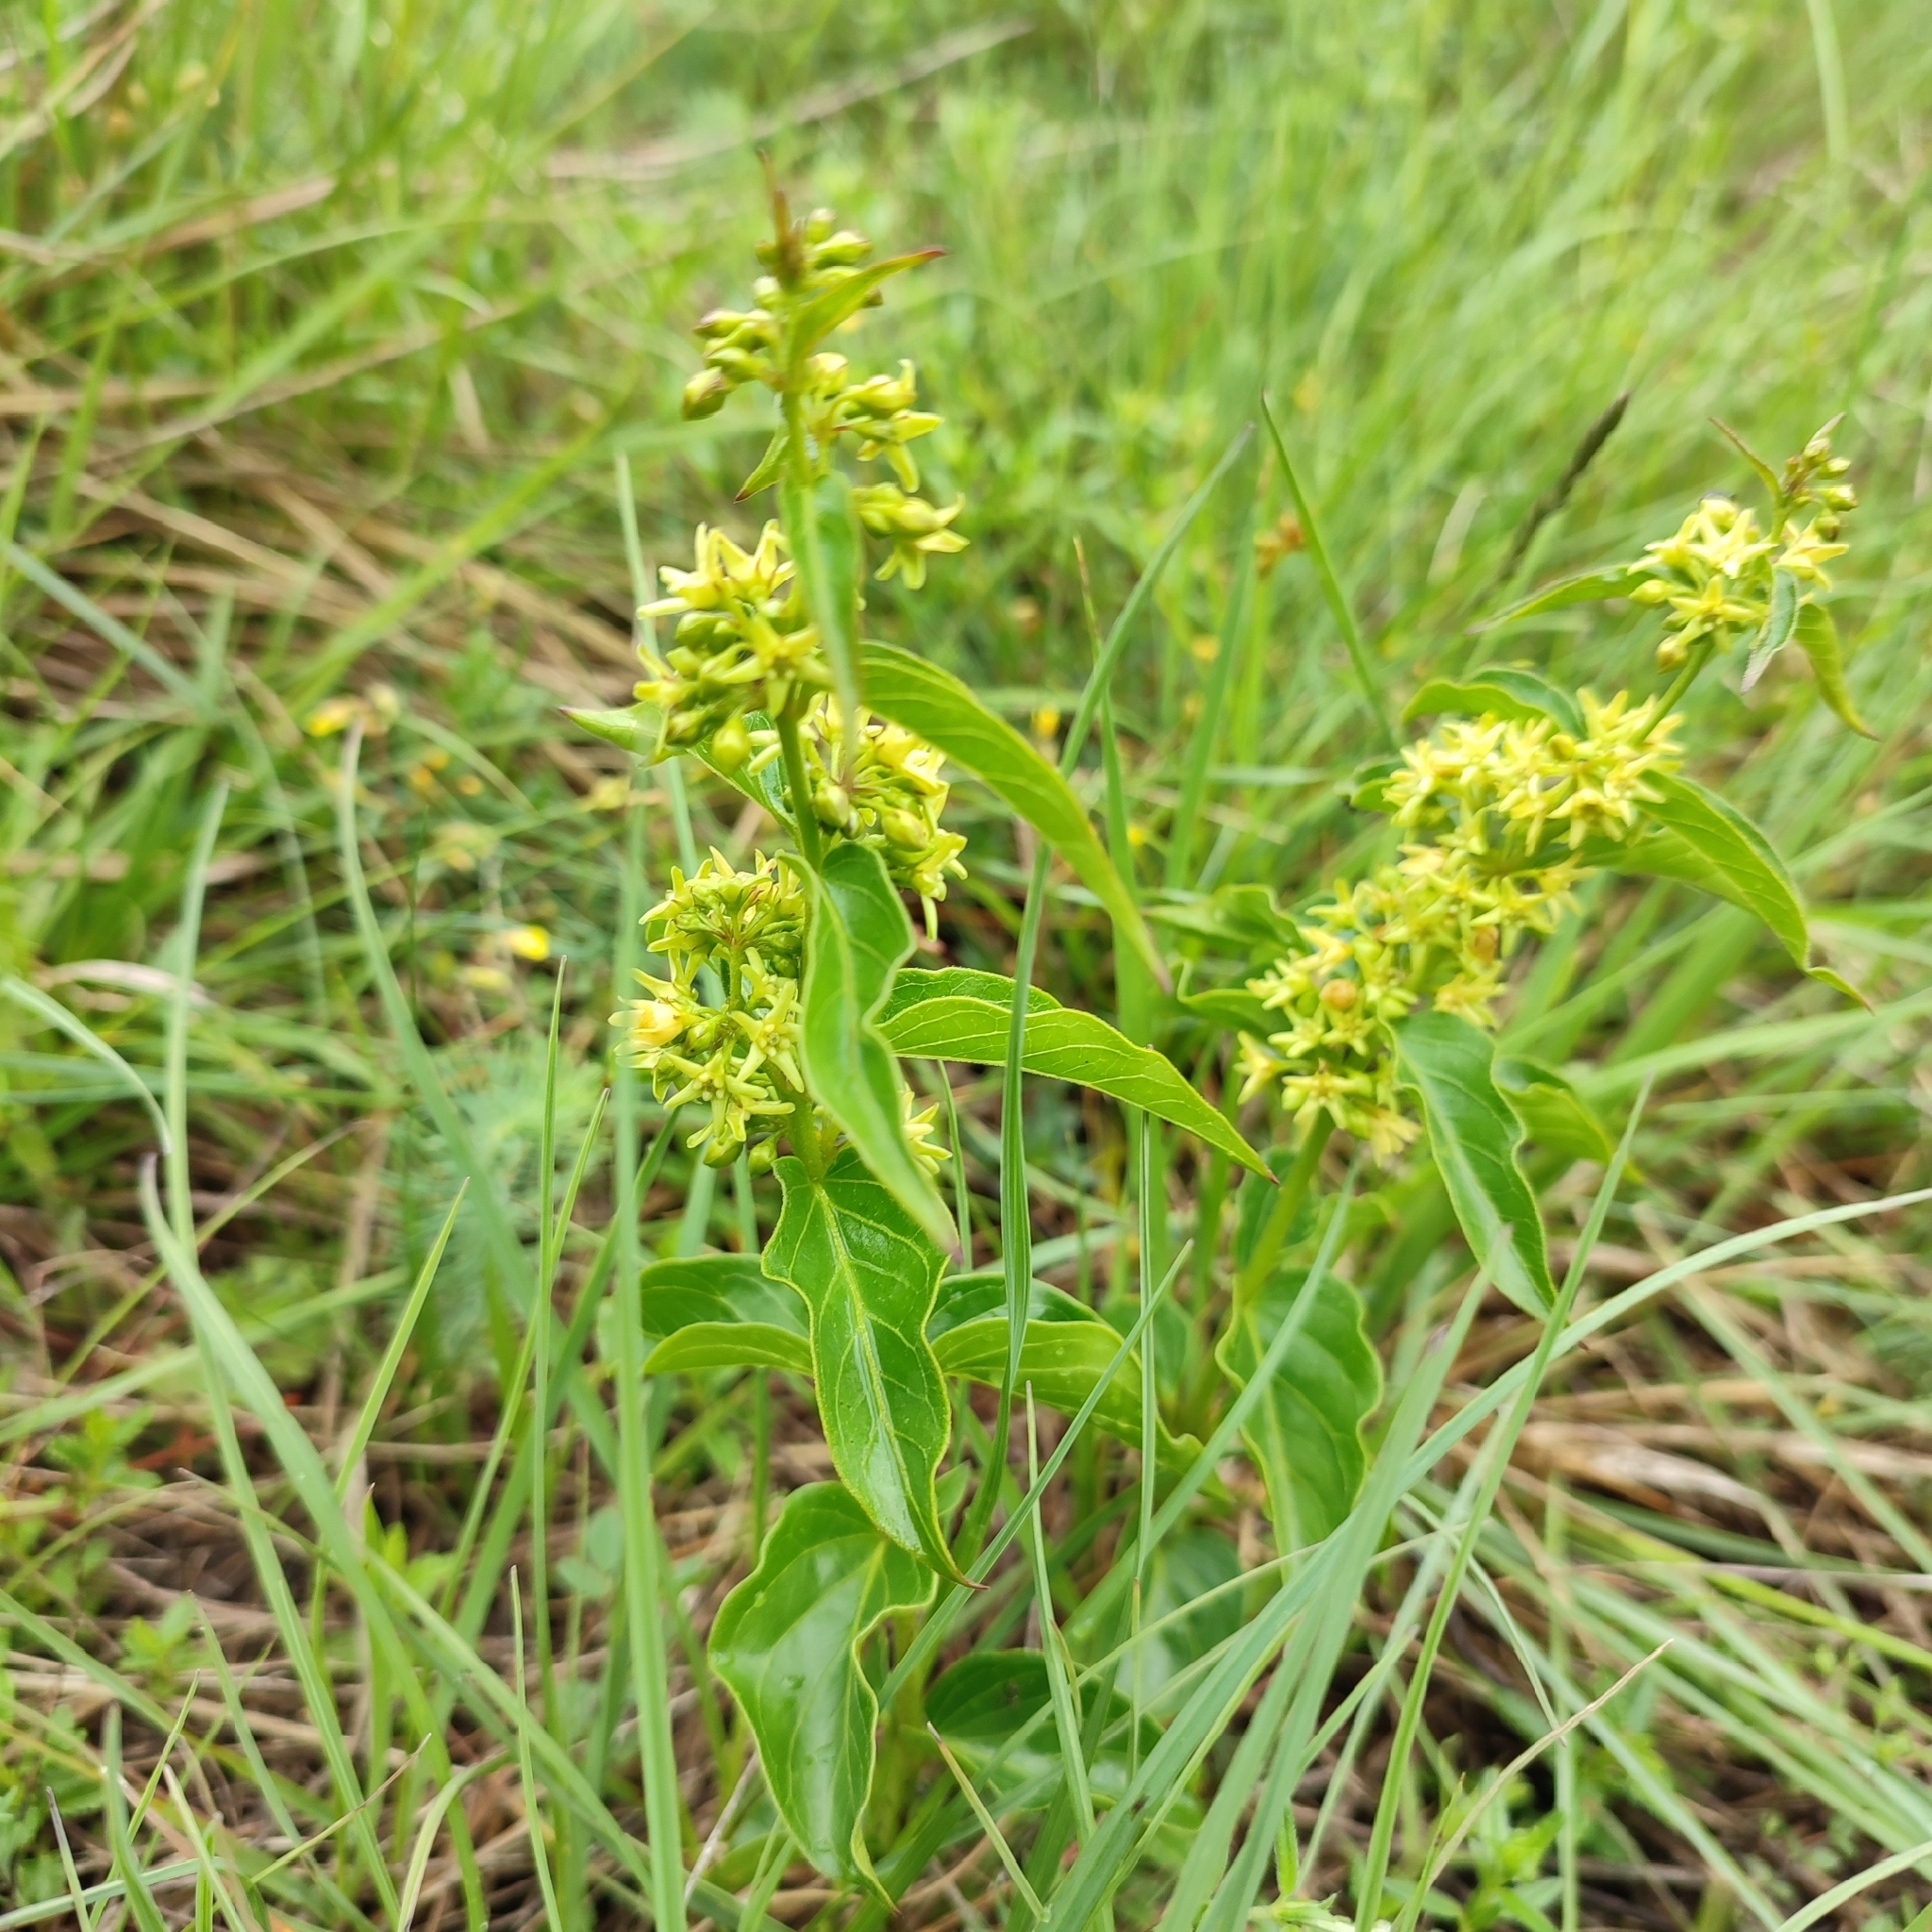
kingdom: Plantae
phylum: Tracheophyta
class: Magnoliopsida
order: Gentianales
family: Apocynaceae
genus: Vincetoxicum
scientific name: Vincetoxicum hirundinaria
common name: White swallowwort
